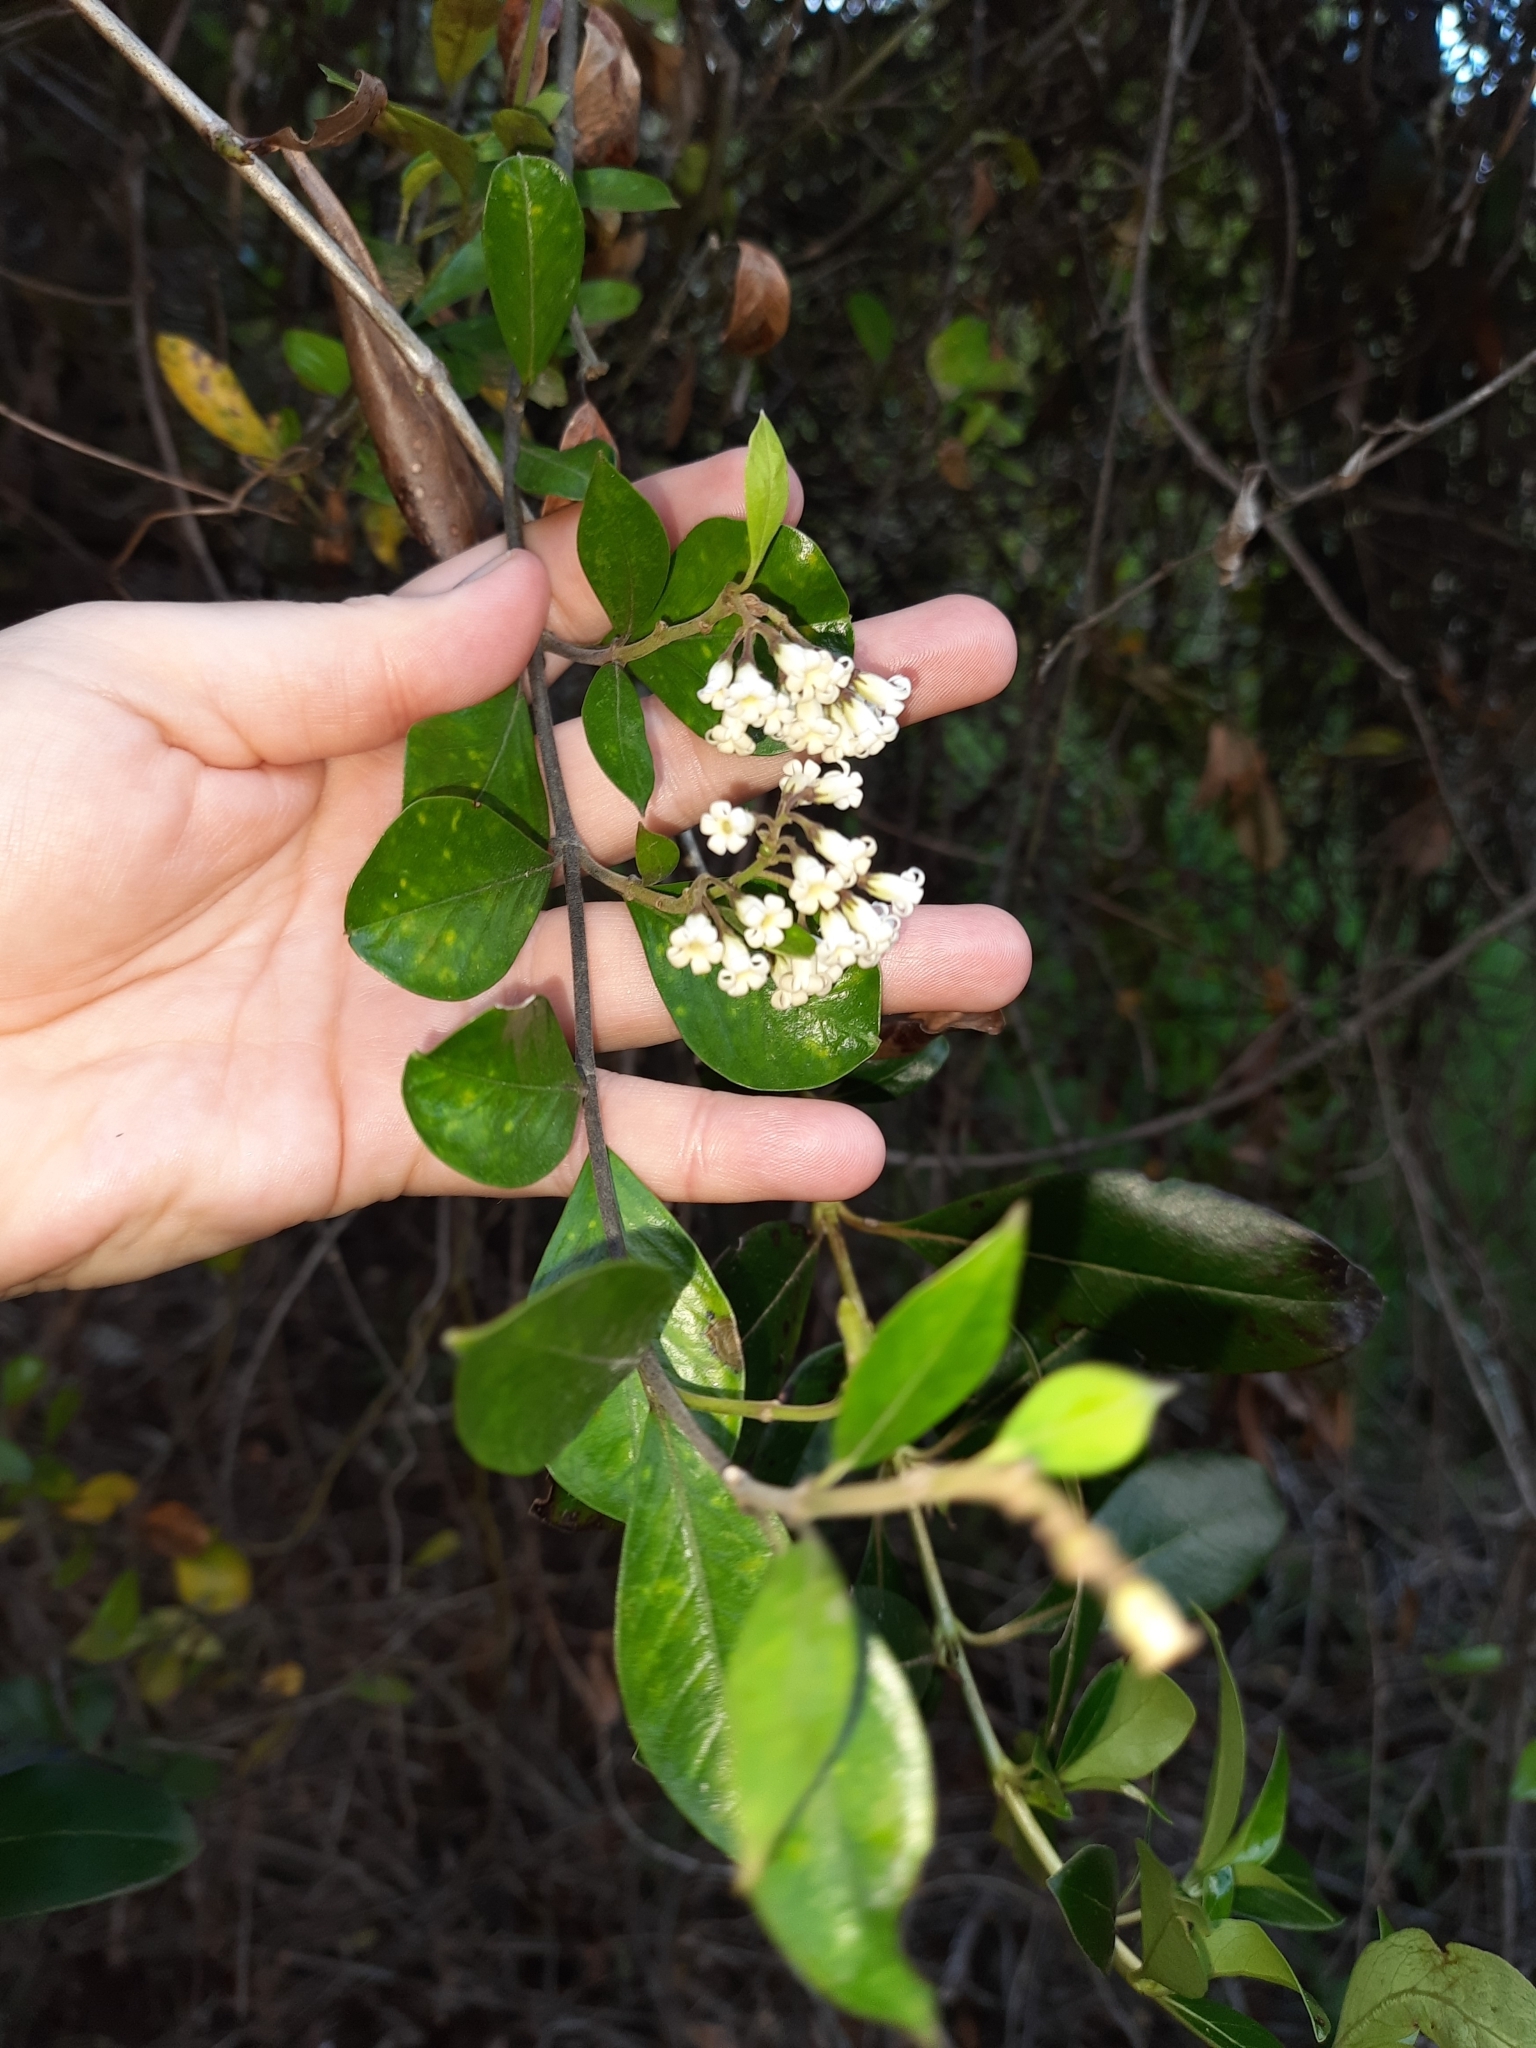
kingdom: Plantae
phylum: Tracheophyta
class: Magnoliopsida
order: Gentianales
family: Apocynaceae
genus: Parsonsia
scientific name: Parsonsia heterophylla
